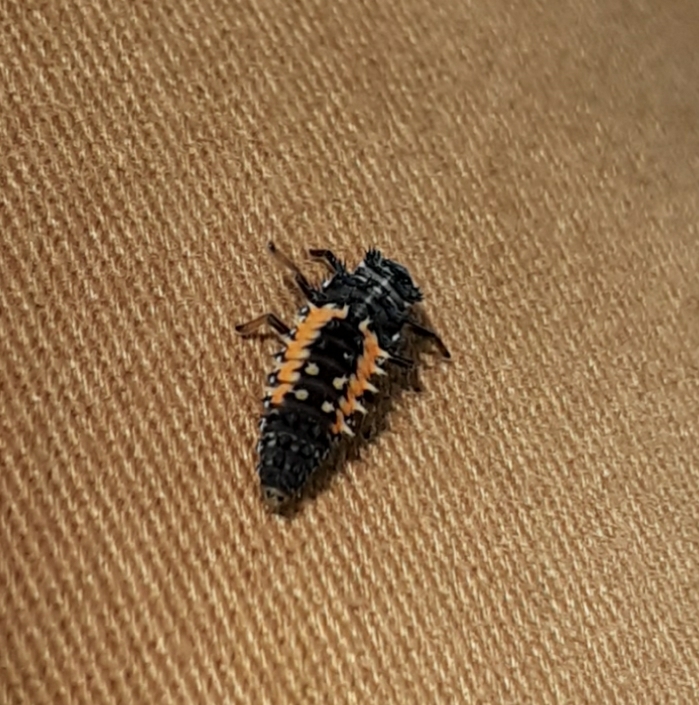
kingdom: Animalia
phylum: Arthropoda
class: Insecta
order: Coleoptera
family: Coccinellidae
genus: Harmonia
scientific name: Harmonia axyridis
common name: Harlequin ladybird
